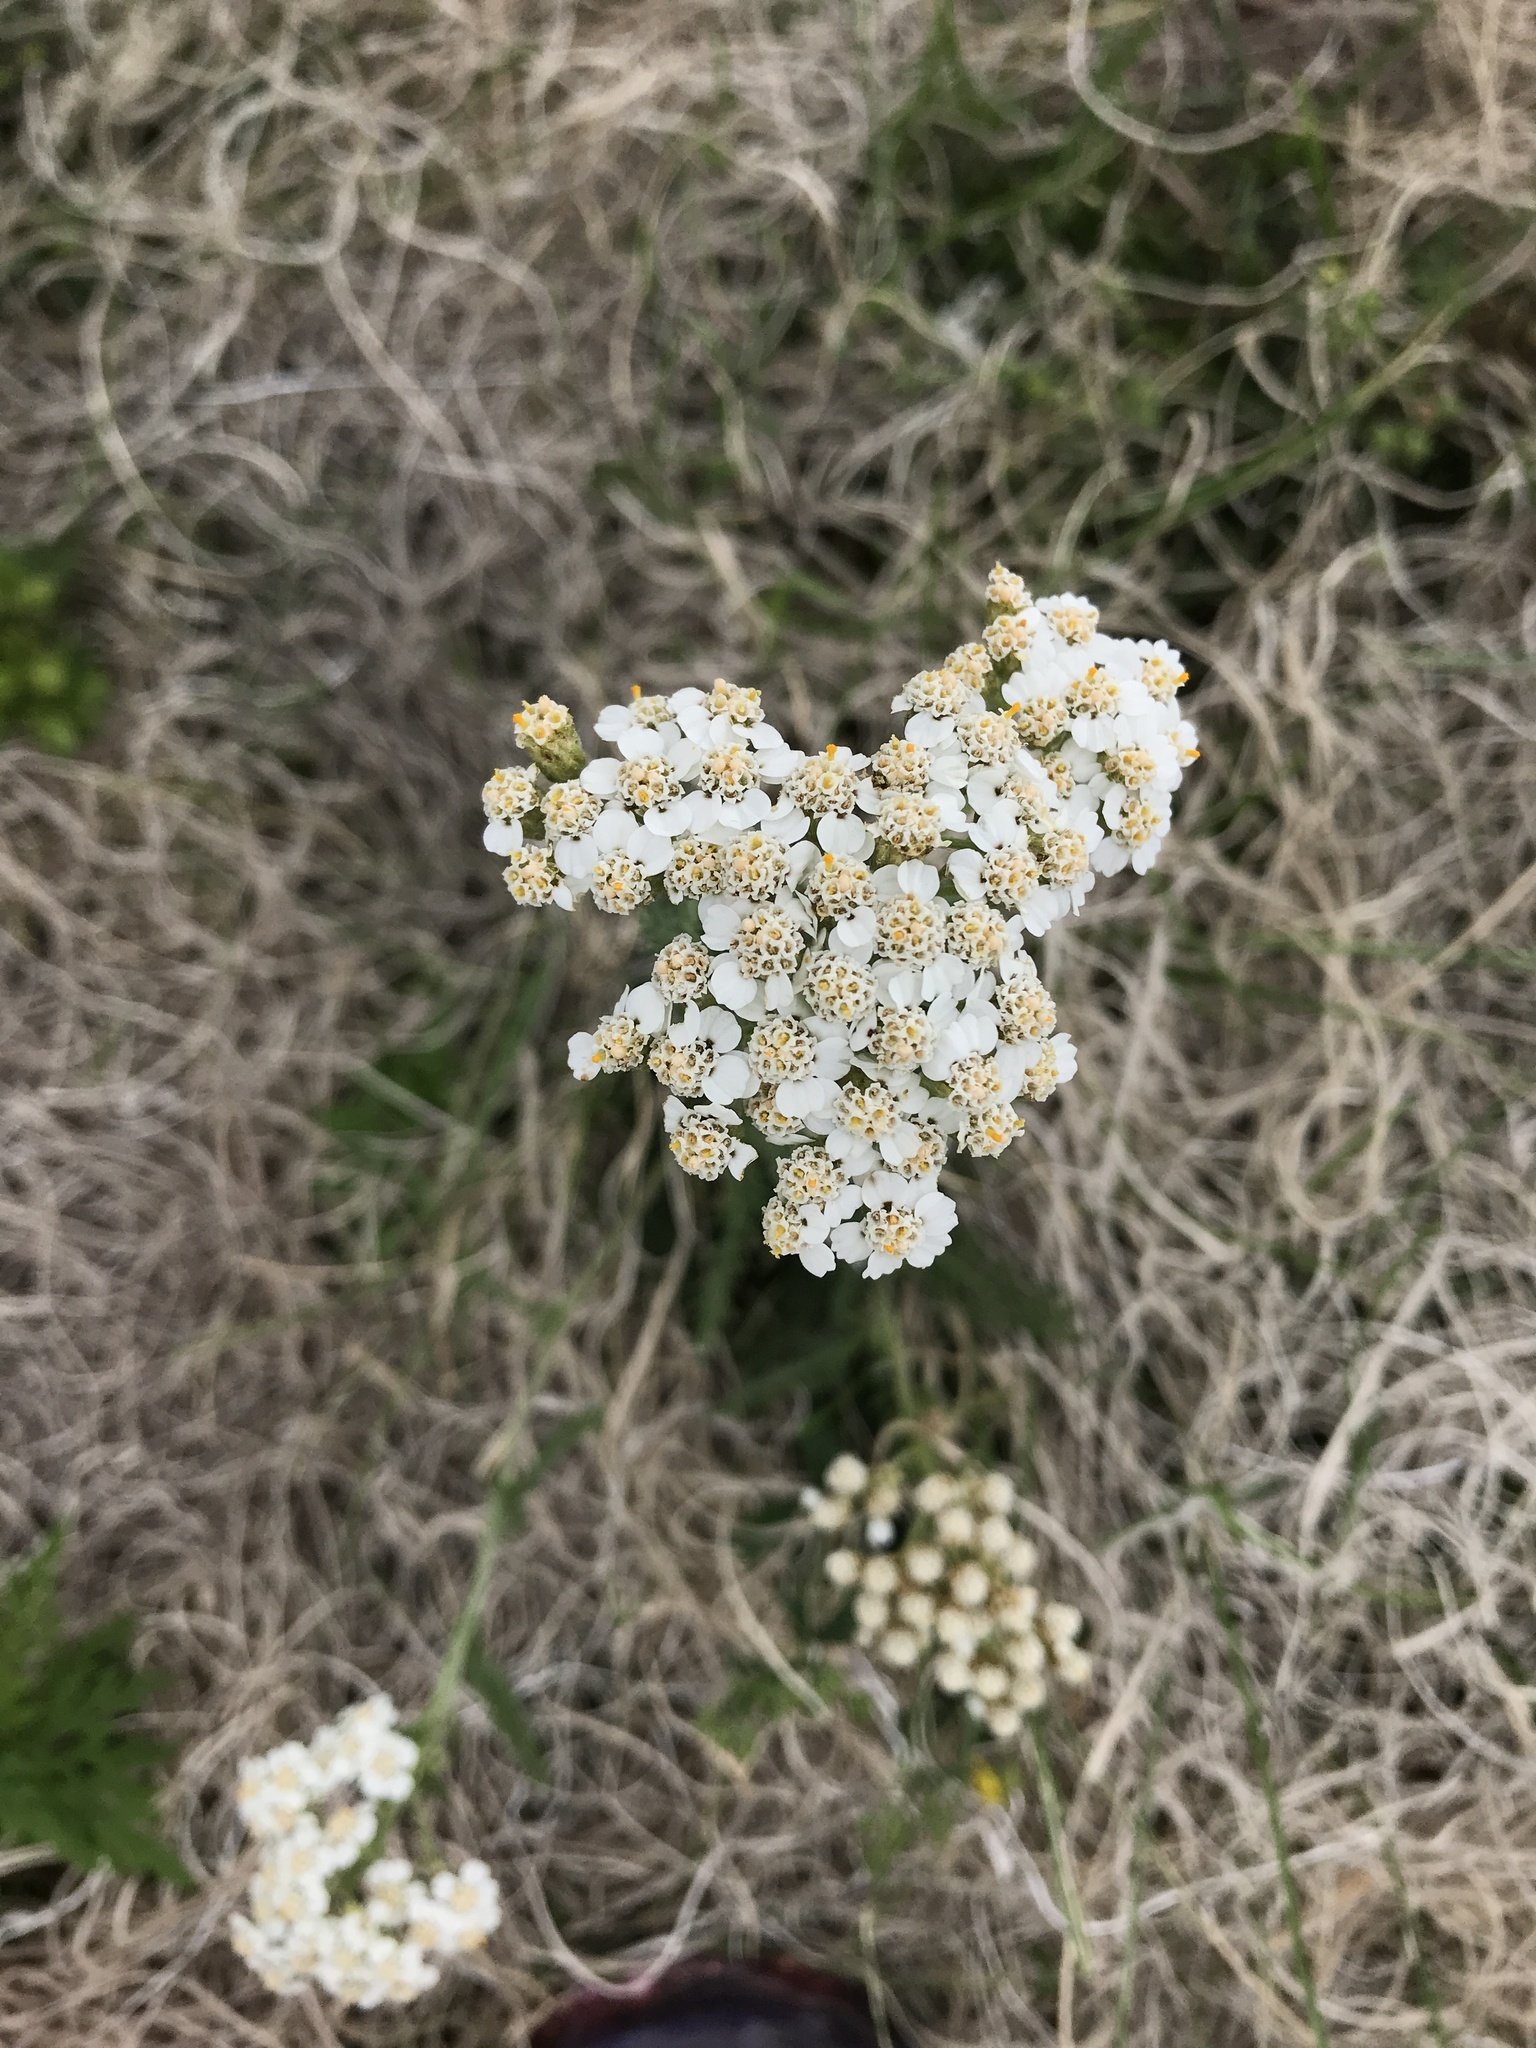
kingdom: Plantae
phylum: Tracheophyta
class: Magnoliopsida
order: Asterales
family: Asteraceae
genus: Achillea
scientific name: Achillea millefolium
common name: Yarrow
